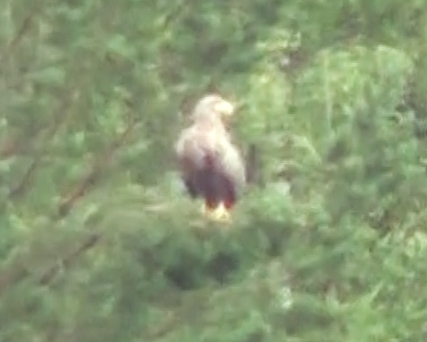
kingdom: Animalia
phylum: Chordata
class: Aves
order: Accipitriformes
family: Accipitridae
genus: Haliaeetus
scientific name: Haliaeetus albicilla
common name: White-tailed eagle
